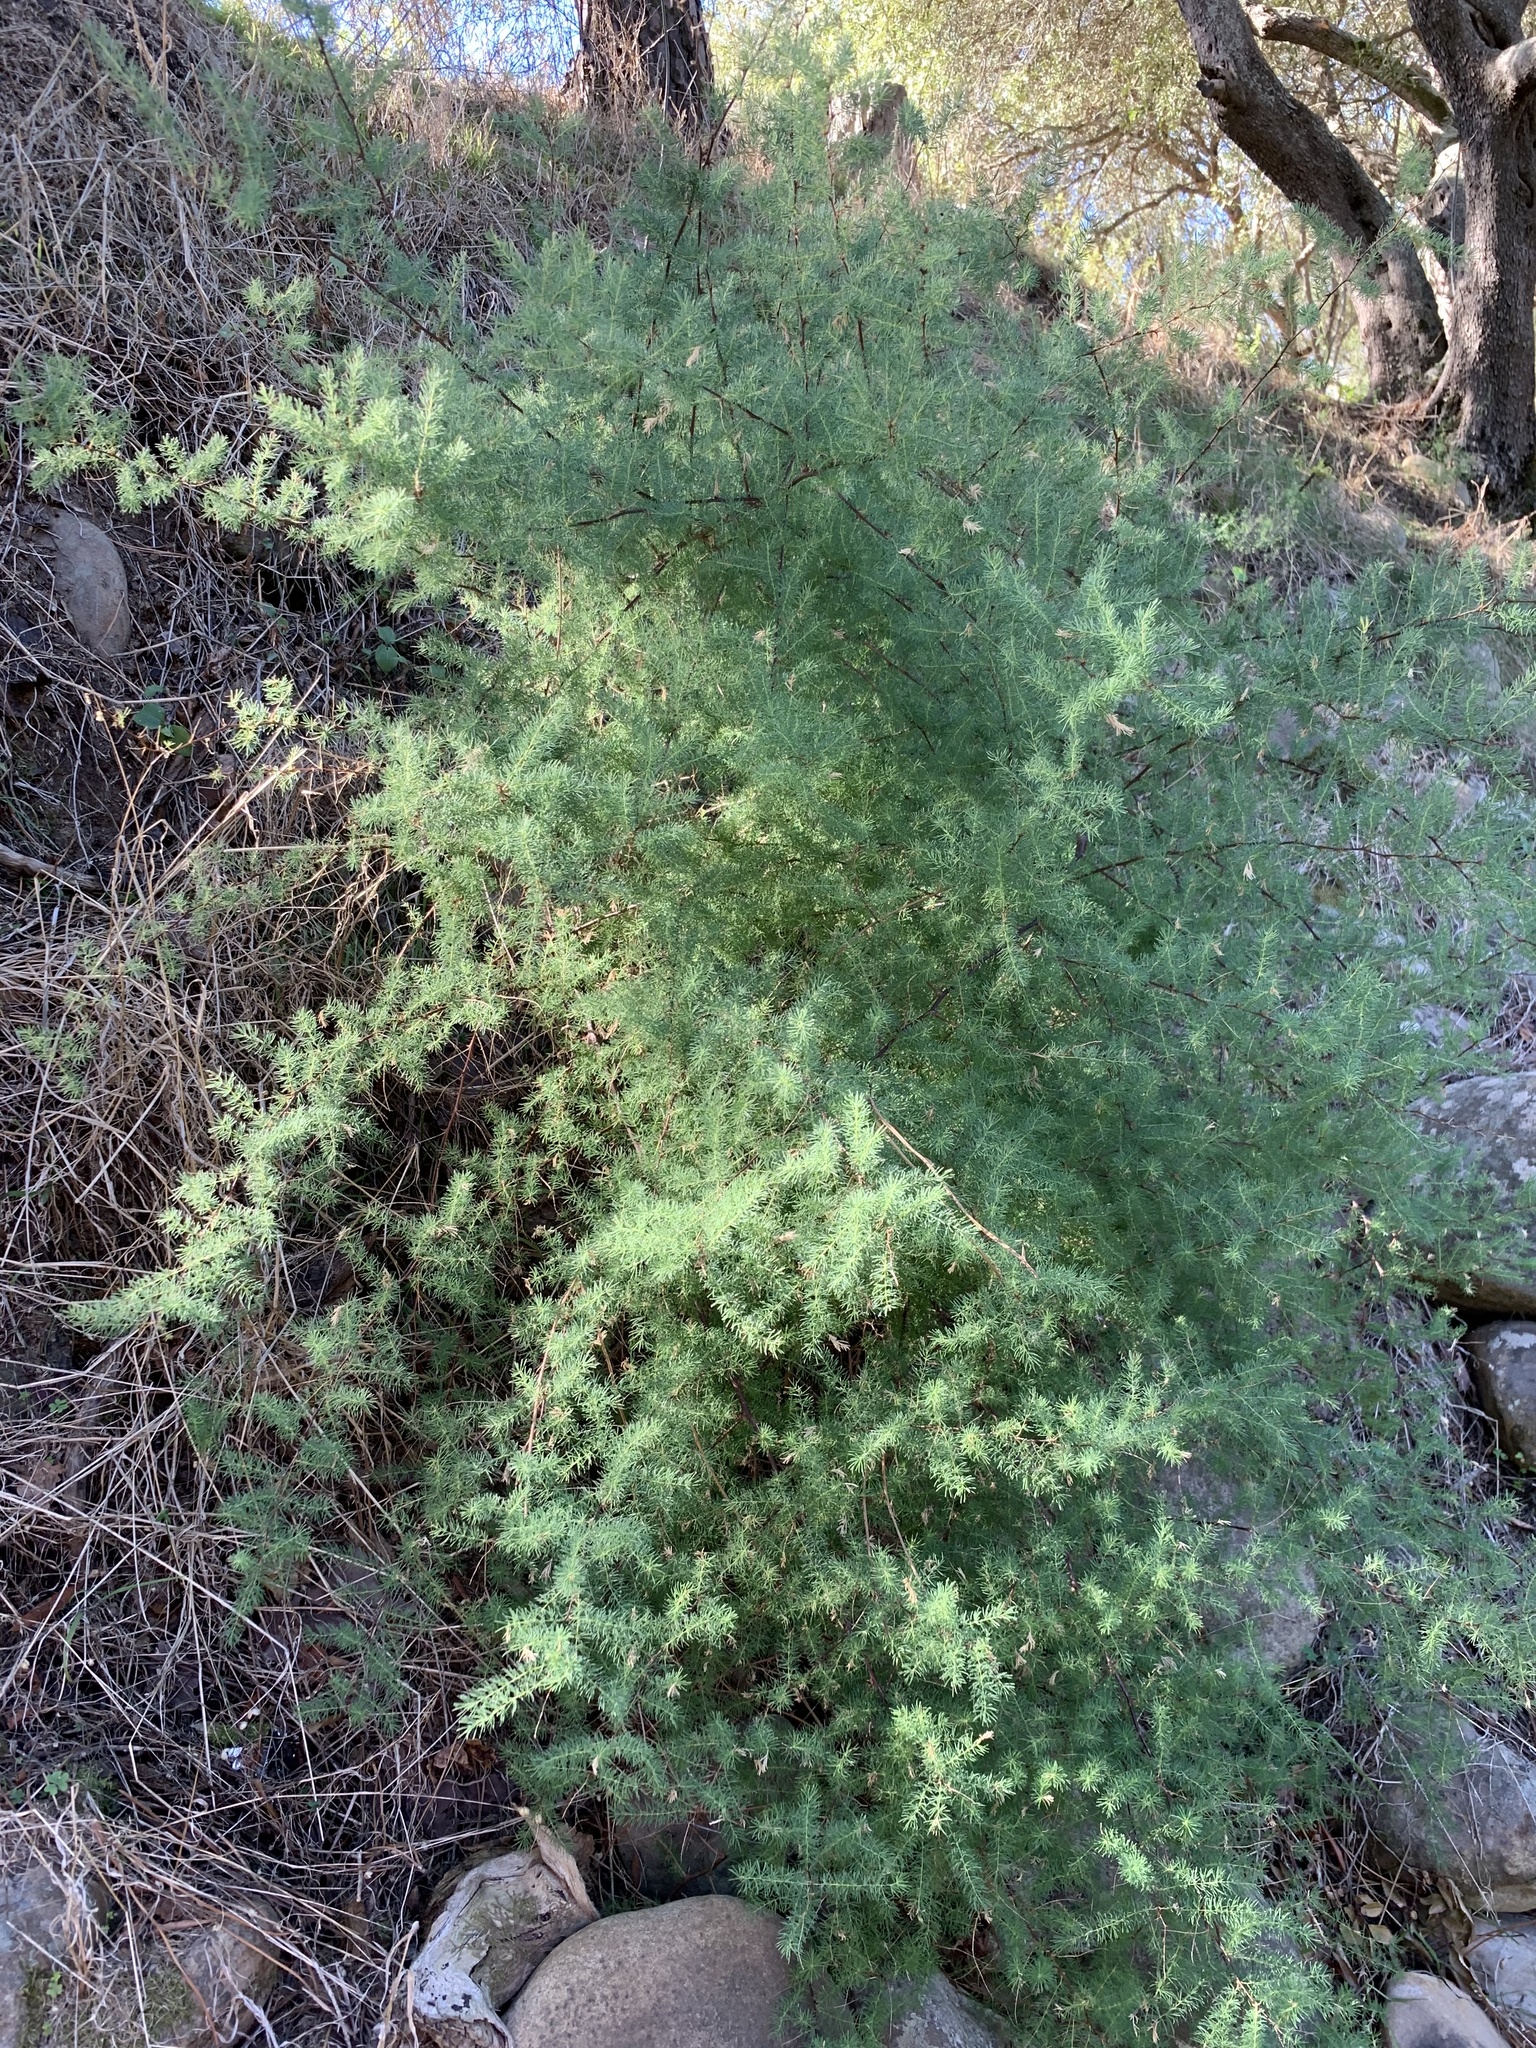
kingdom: Plantae
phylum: Tracheophyta
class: Liliopsida
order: Asparagales
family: Asparagaceae
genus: Asparagus
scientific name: Asparagus rubicundus
